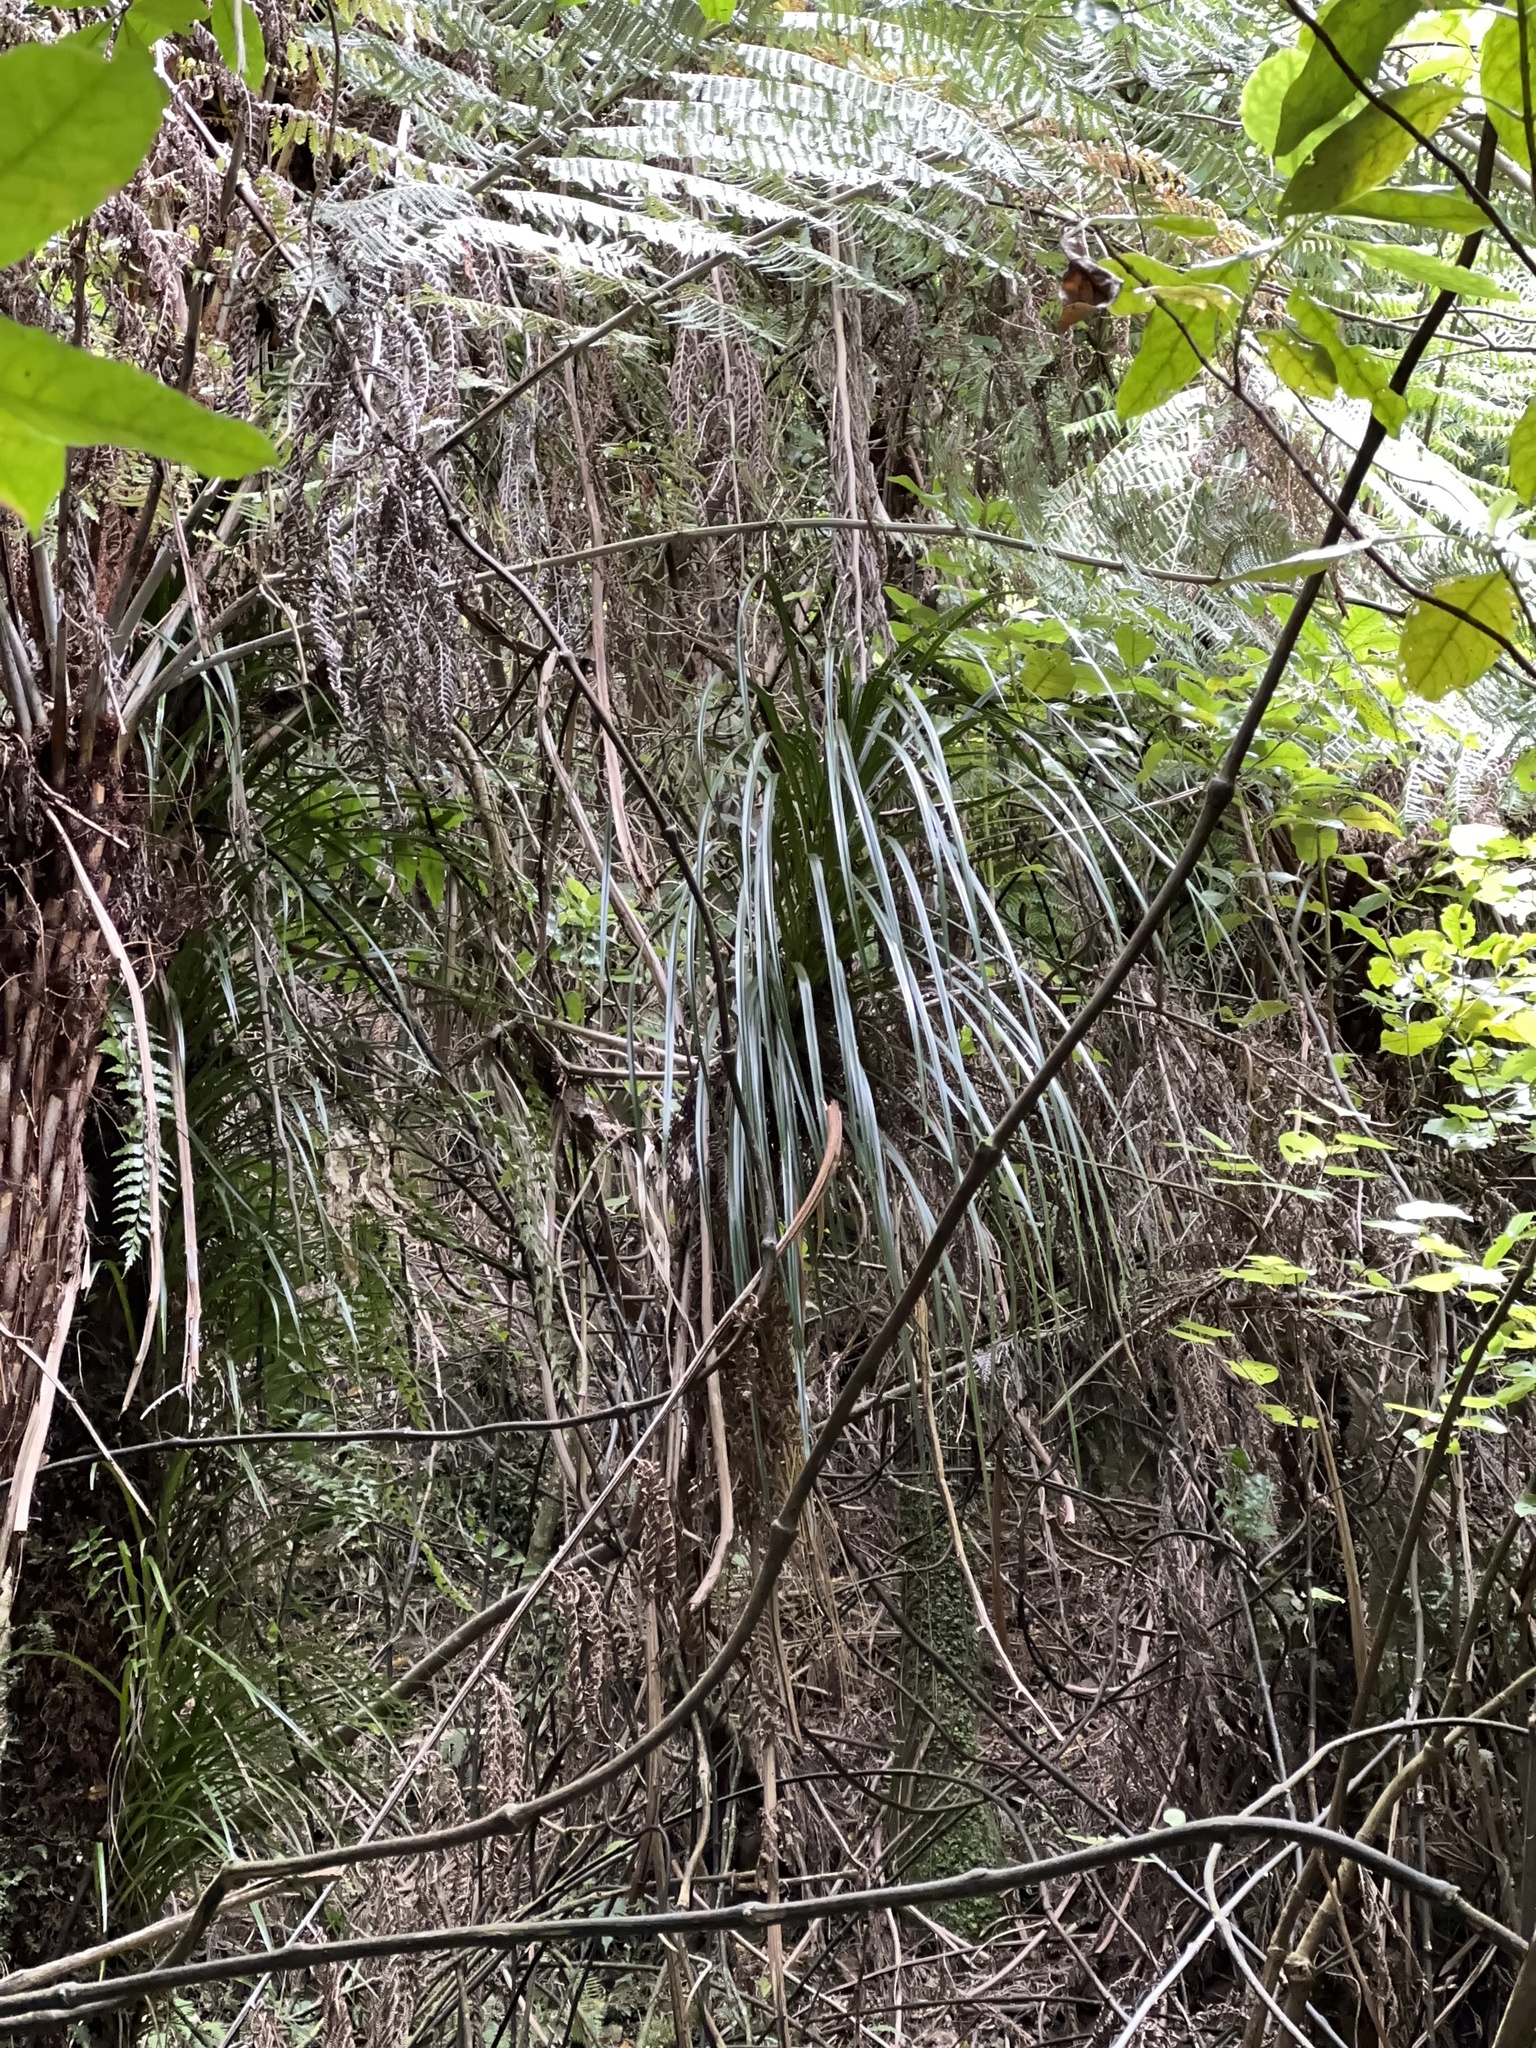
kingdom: Plantae
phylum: Tracheophyta
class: Liliopsida
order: Pandanales
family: Pandanaceae
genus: Freycinetia
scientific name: Freycinetia banksii
